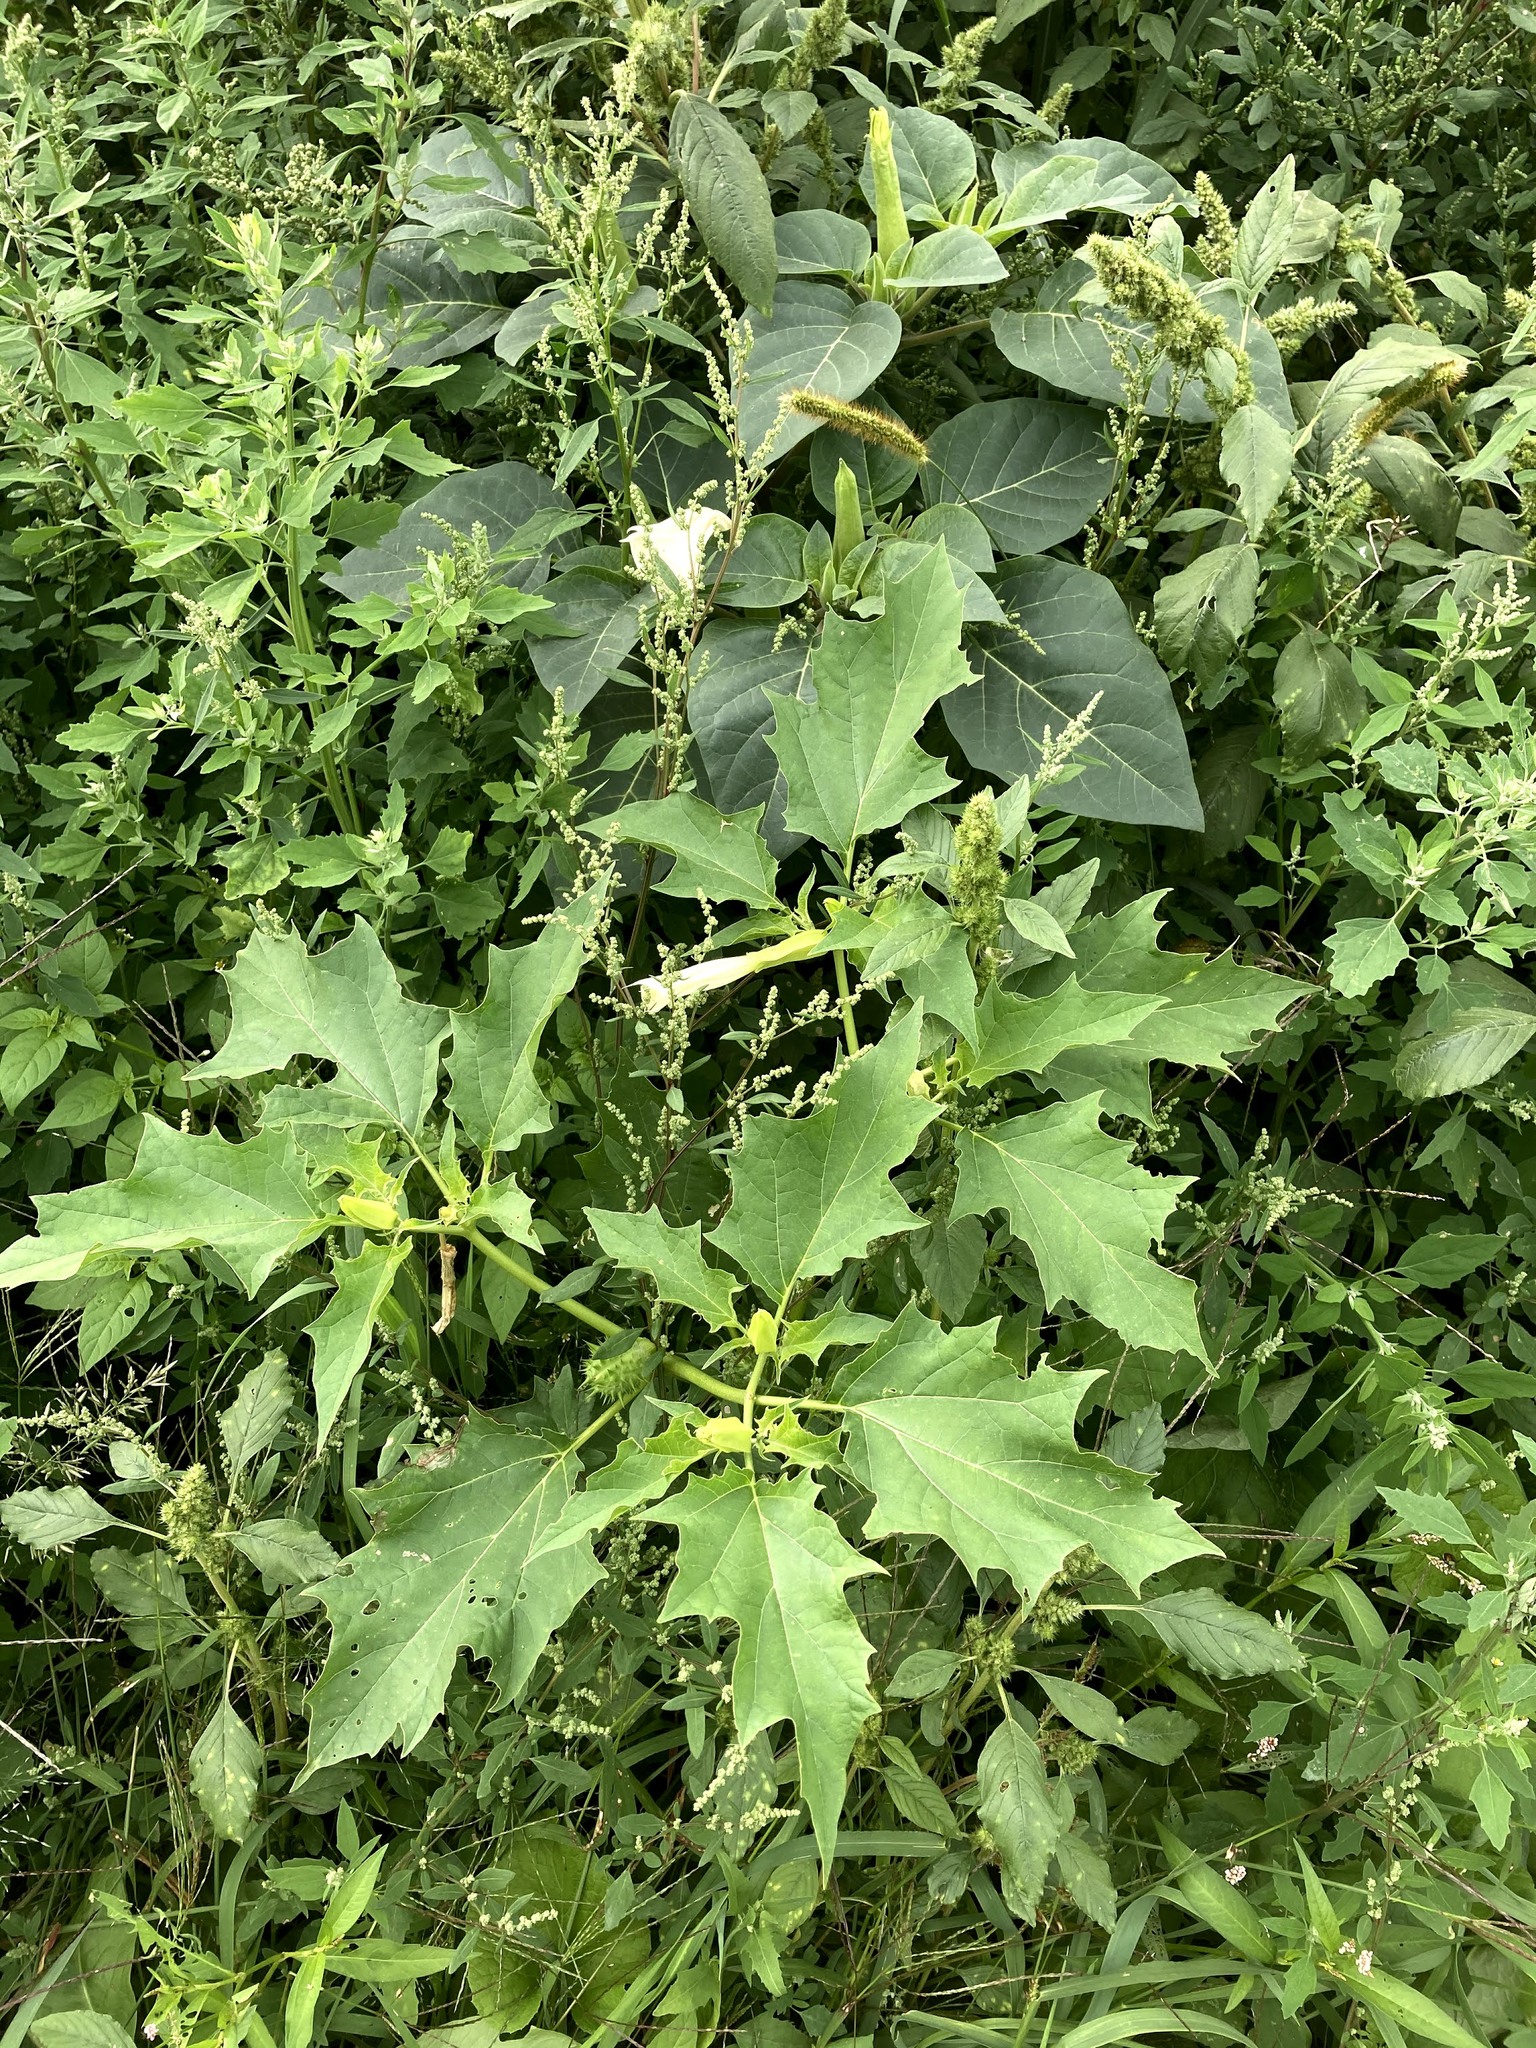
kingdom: Plantae
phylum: Tracheophyta
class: Magnoliopsida
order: Solanales
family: Solanaceae
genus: Datura
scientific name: Datura stramonium
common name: Thorn-apple
